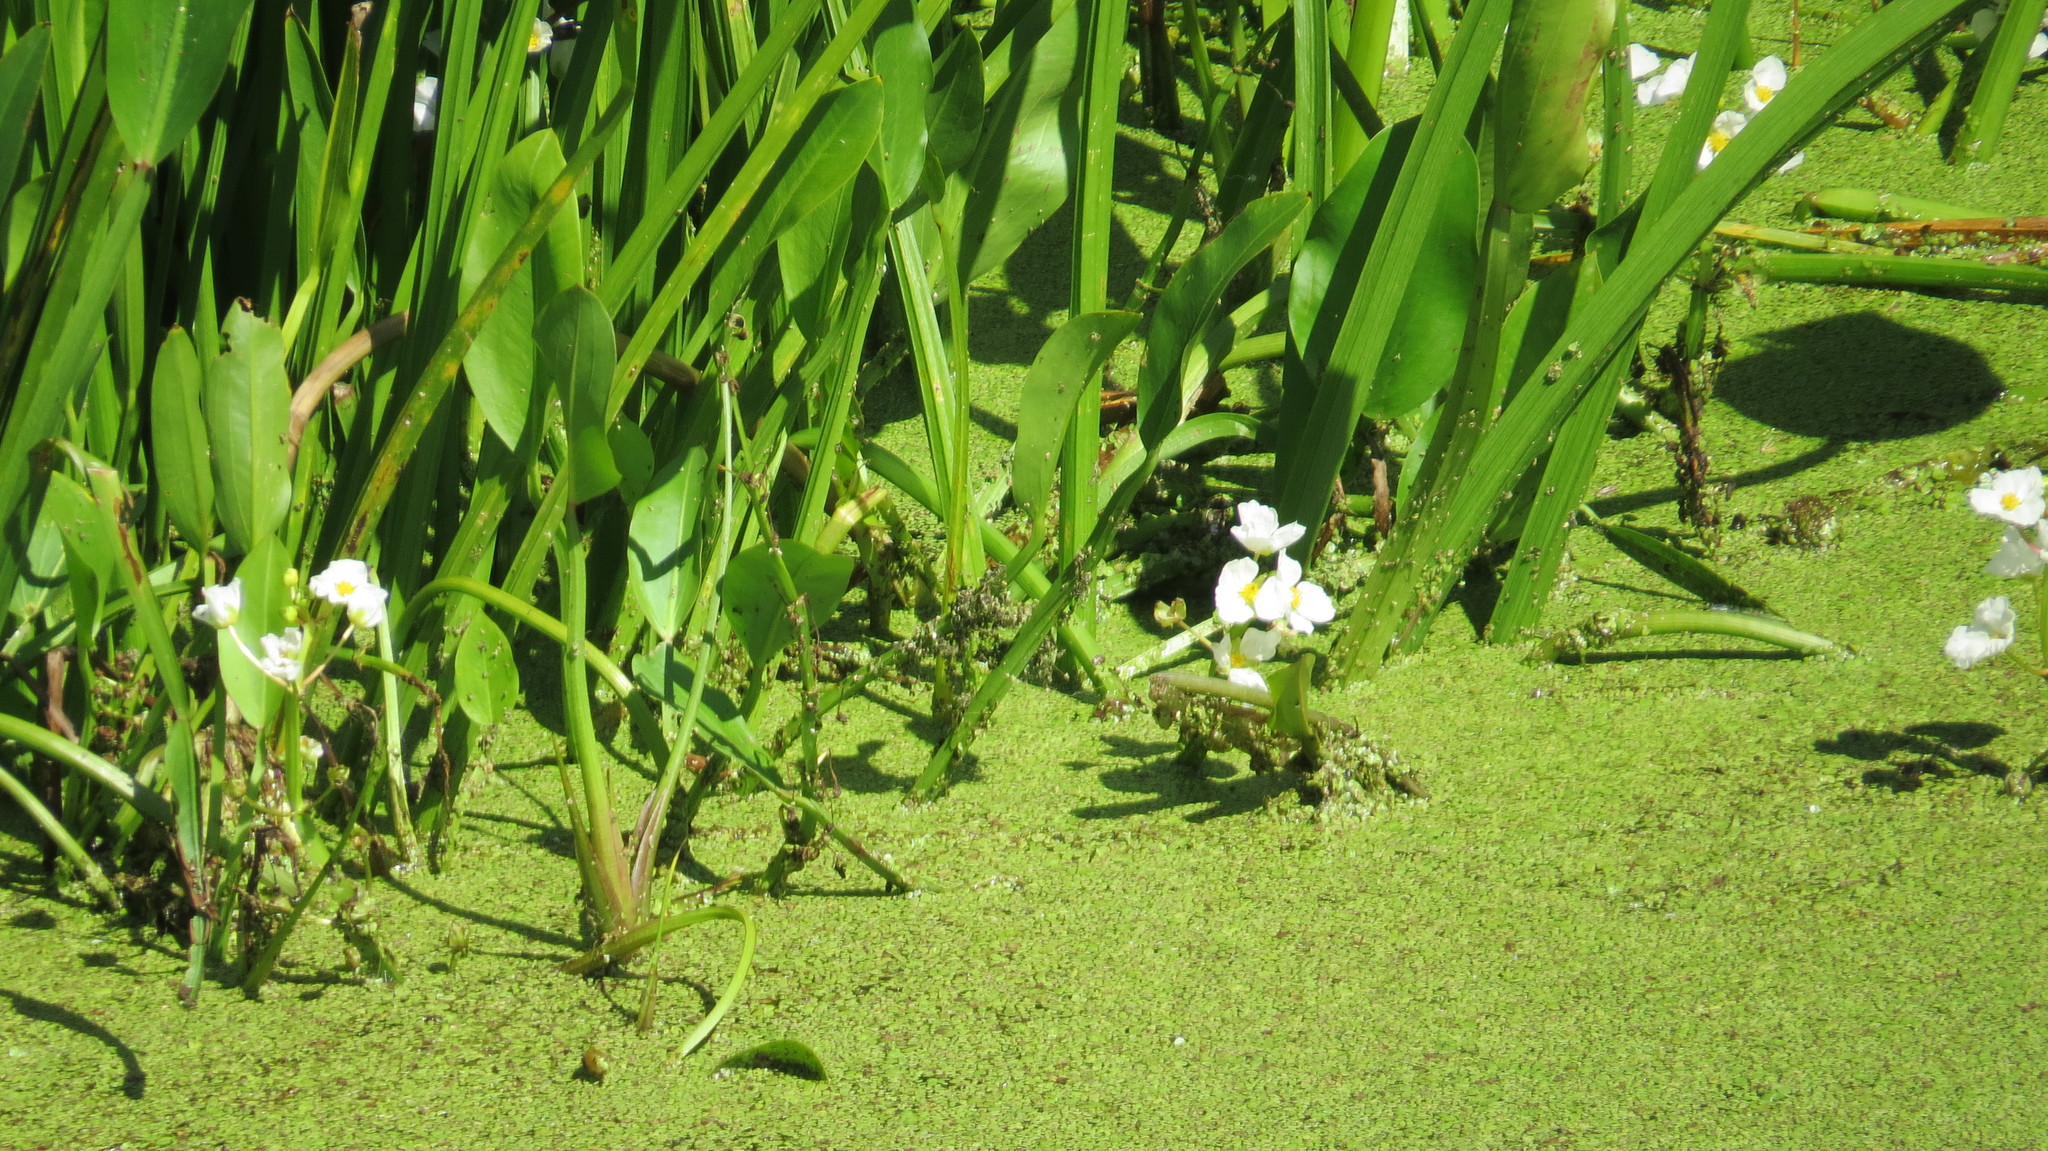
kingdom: Plantae
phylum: Tracheophyta
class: Liliopsida
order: Alismatales
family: Alismataceae
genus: Sagittaria
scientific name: Sagittaria rigida
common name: Canadian arrowhead
